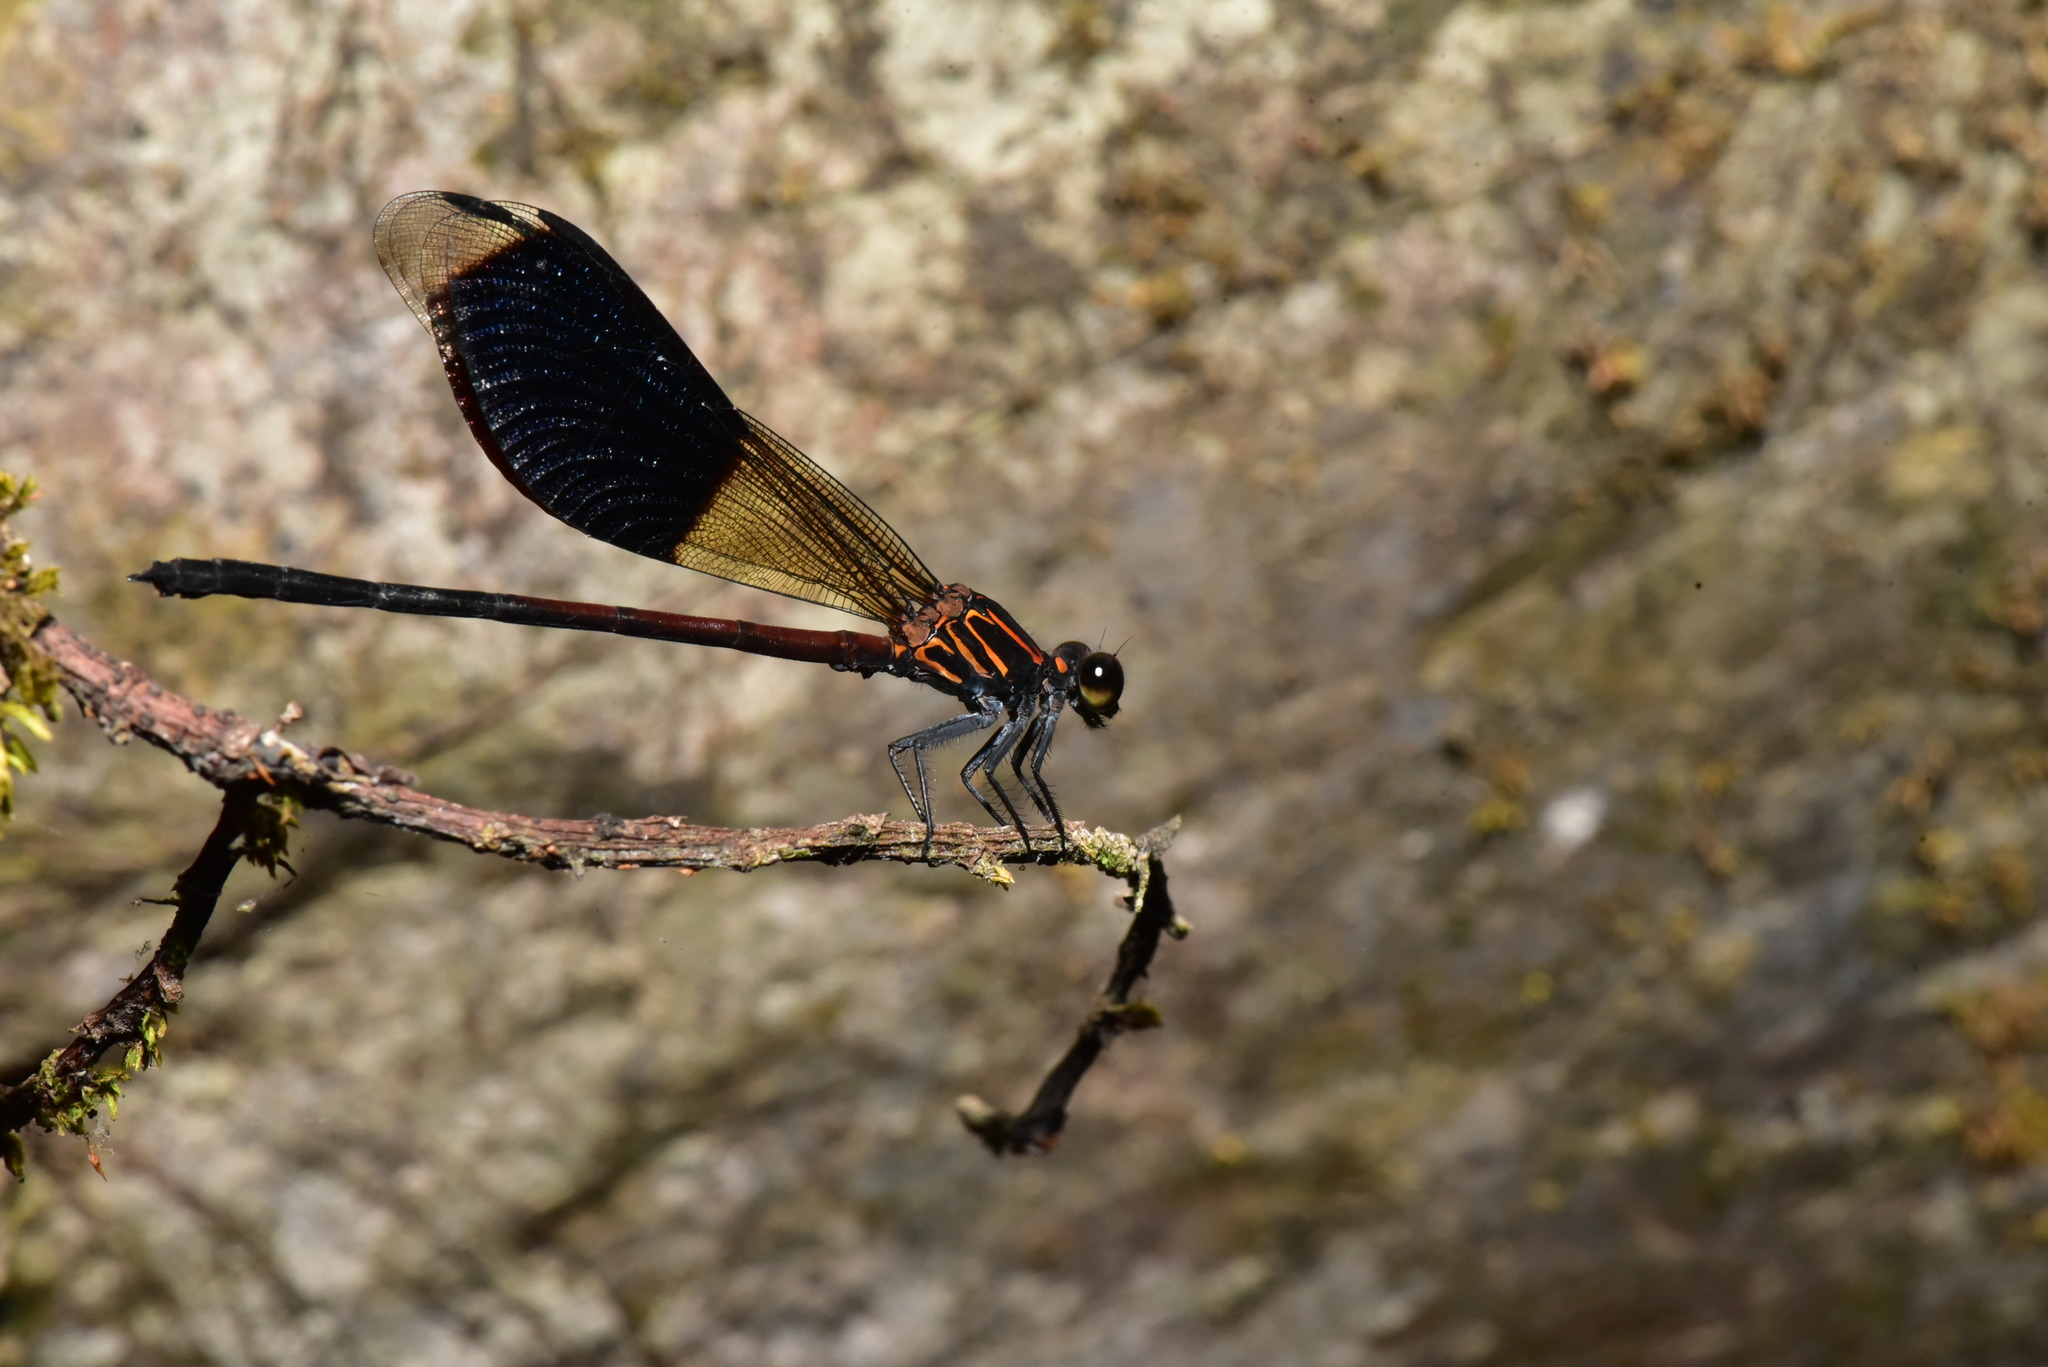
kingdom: Animalia
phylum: Arthropoda
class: Insecta
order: Odonata
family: Euphaeidae
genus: Euphaea
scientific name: Euphaea formosa
